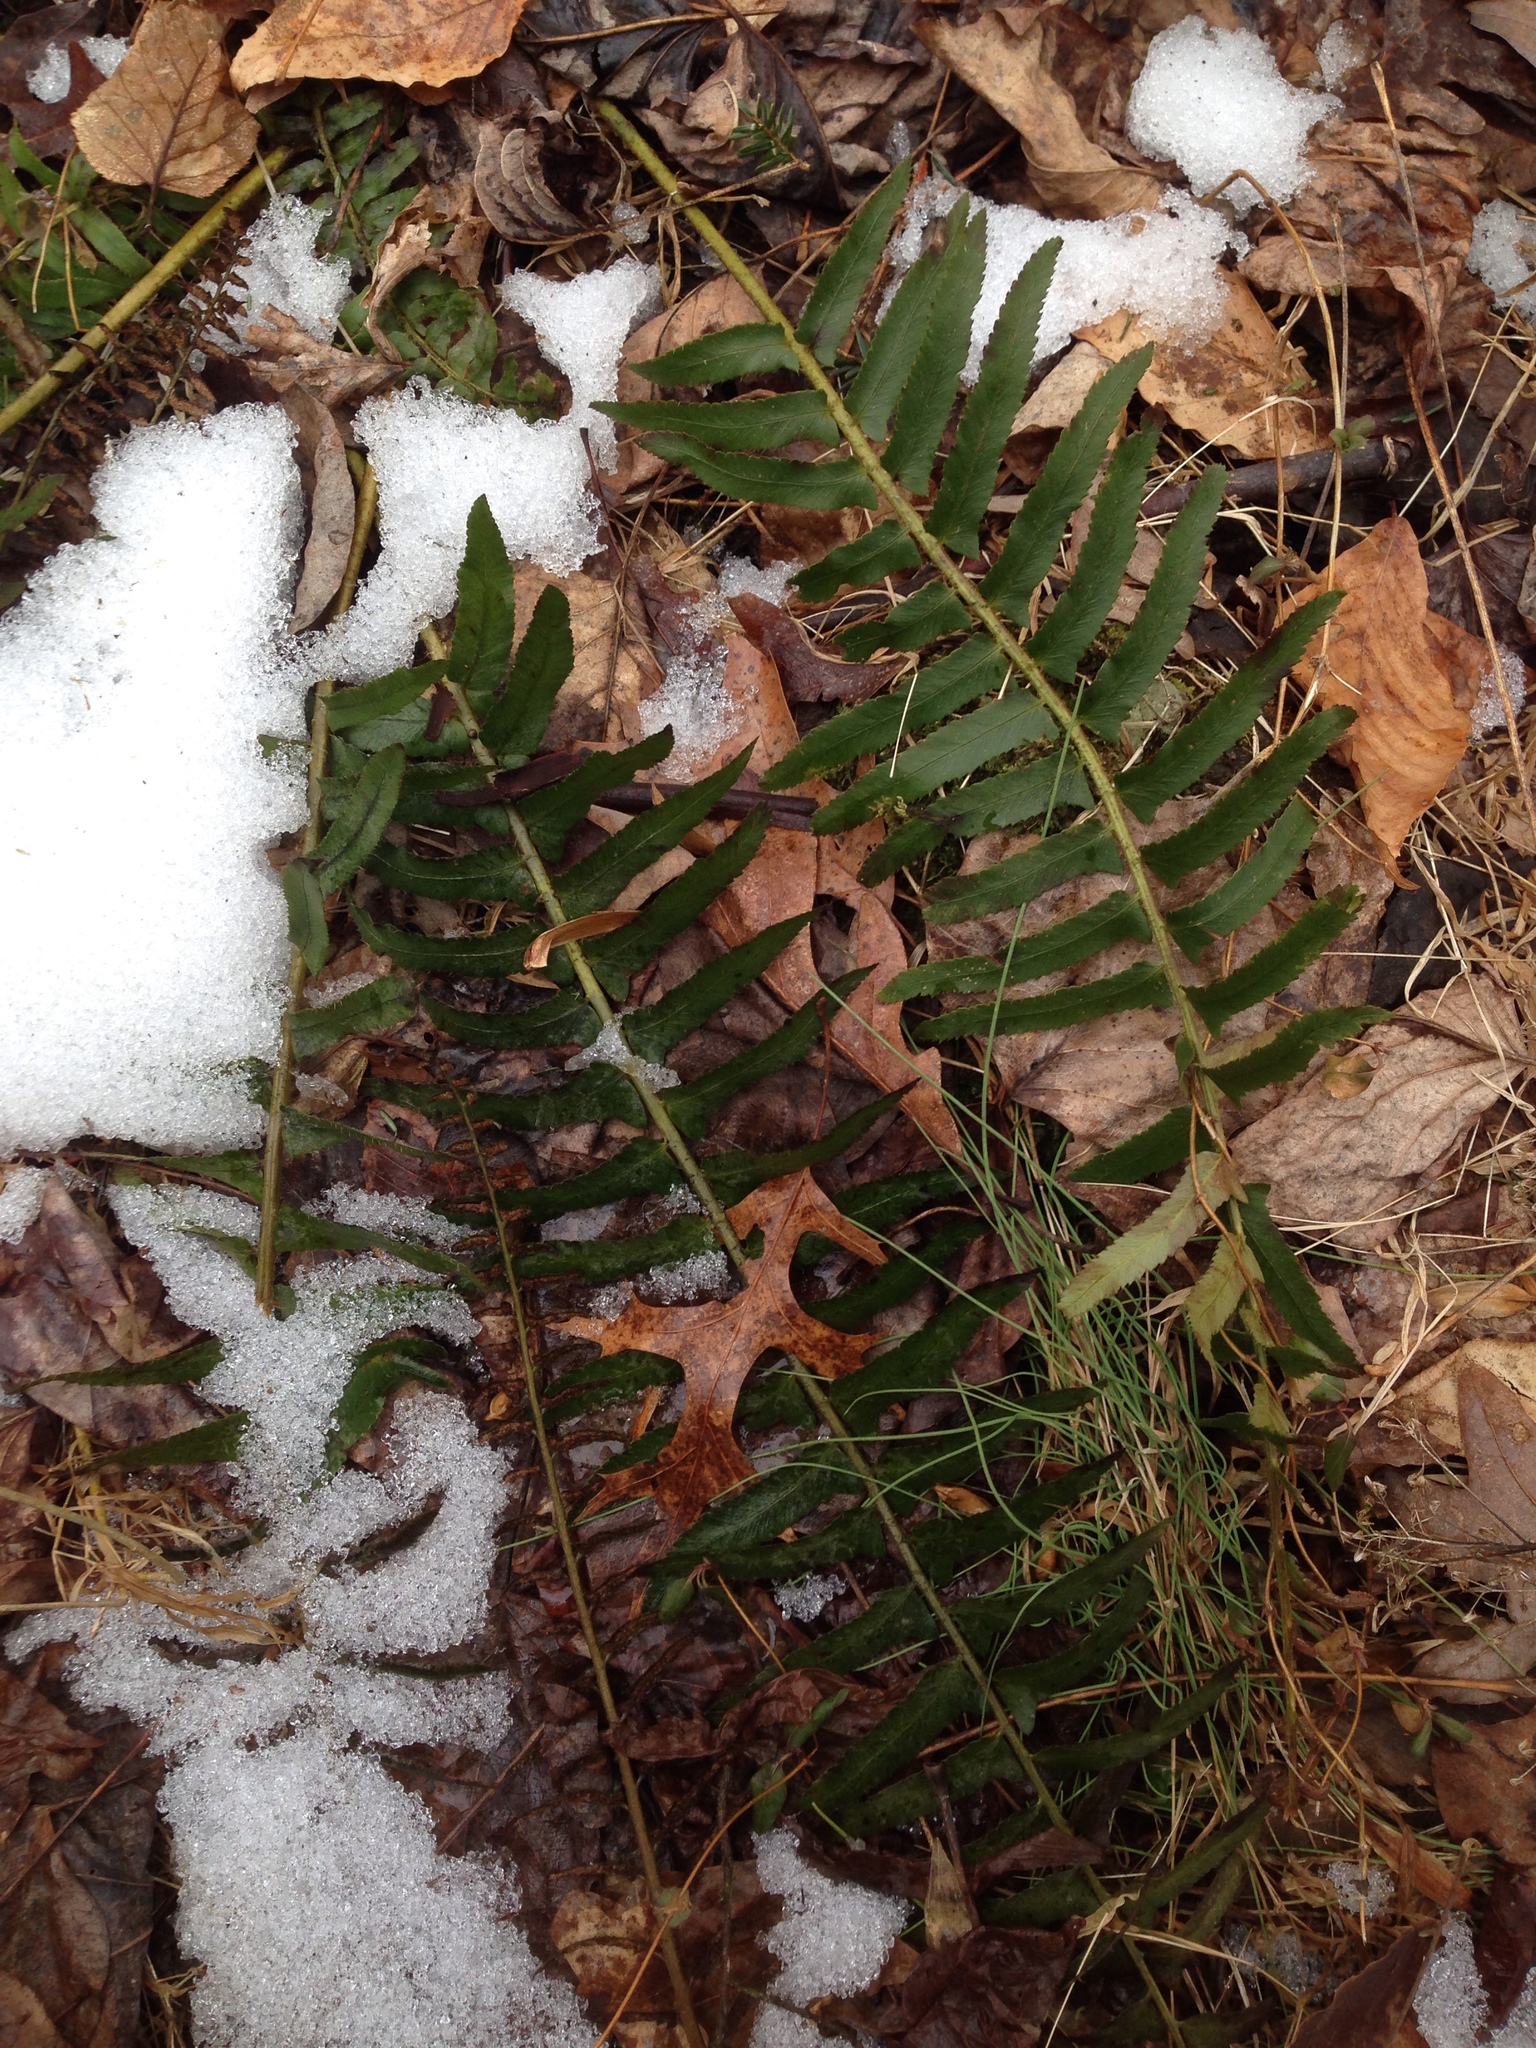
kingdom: Plantae
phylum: Tracheophyta
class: Polypodiopsida
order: Polypodiales
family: Dryopteridaceae
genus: Polystichum
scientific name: Polystichum acrostichoides
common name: Christmas fern
